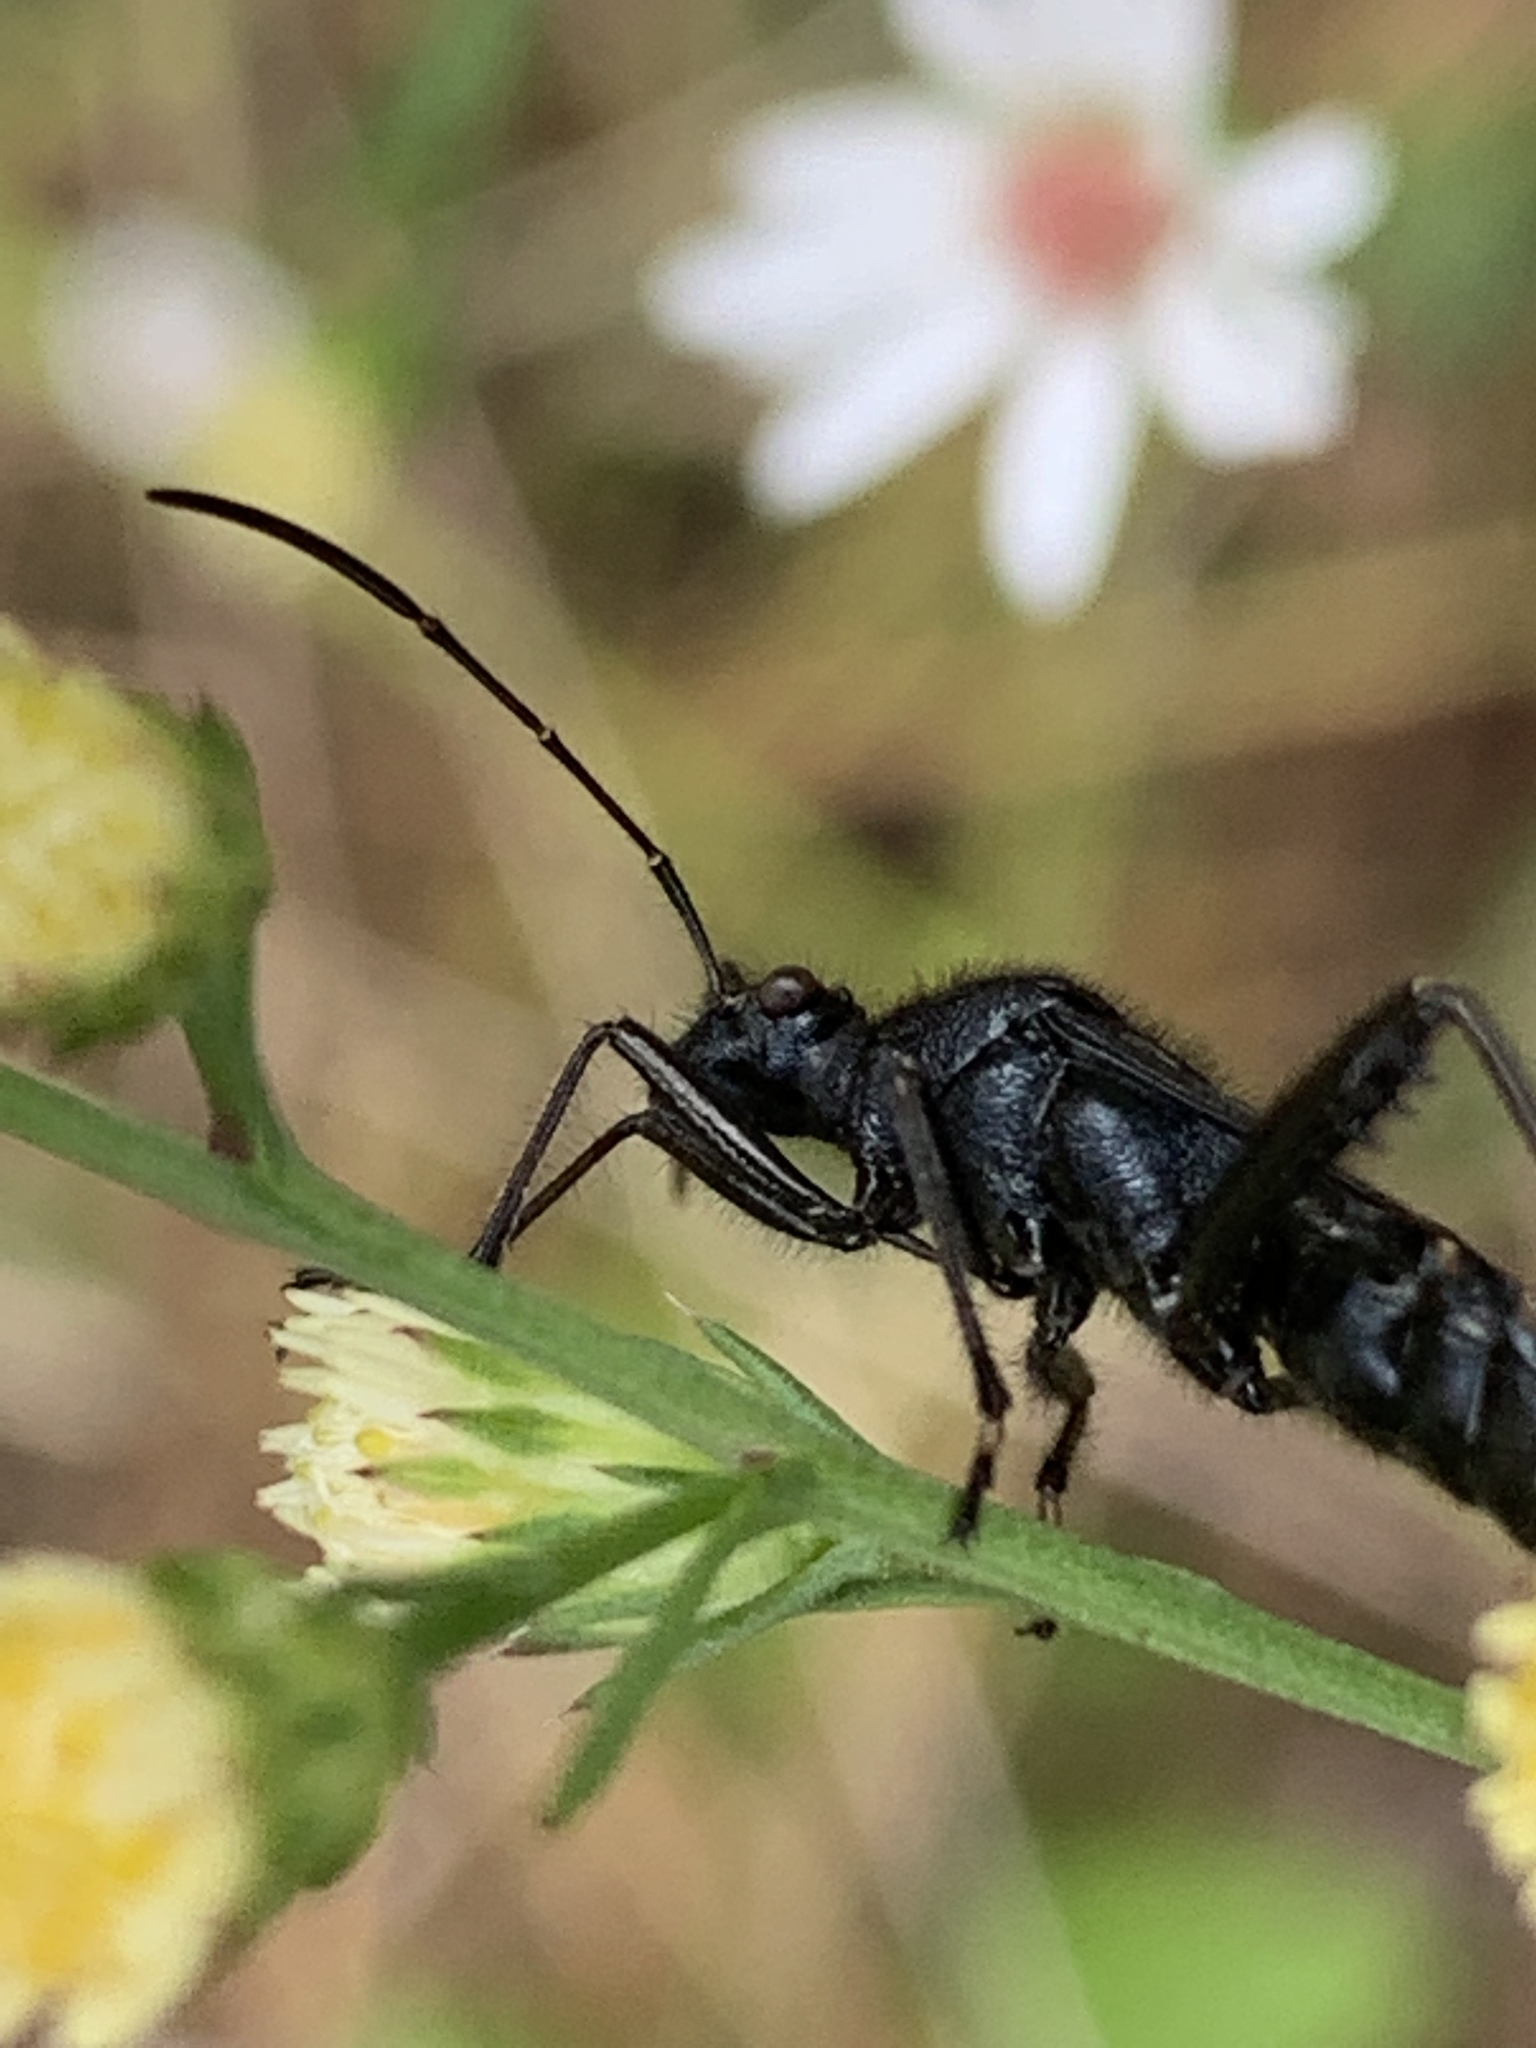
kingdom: Animalia
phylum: Arthropoda
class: Insecta
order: Hemiptera
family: Alydidae
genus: Alydus
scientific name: Alydus eurinus
